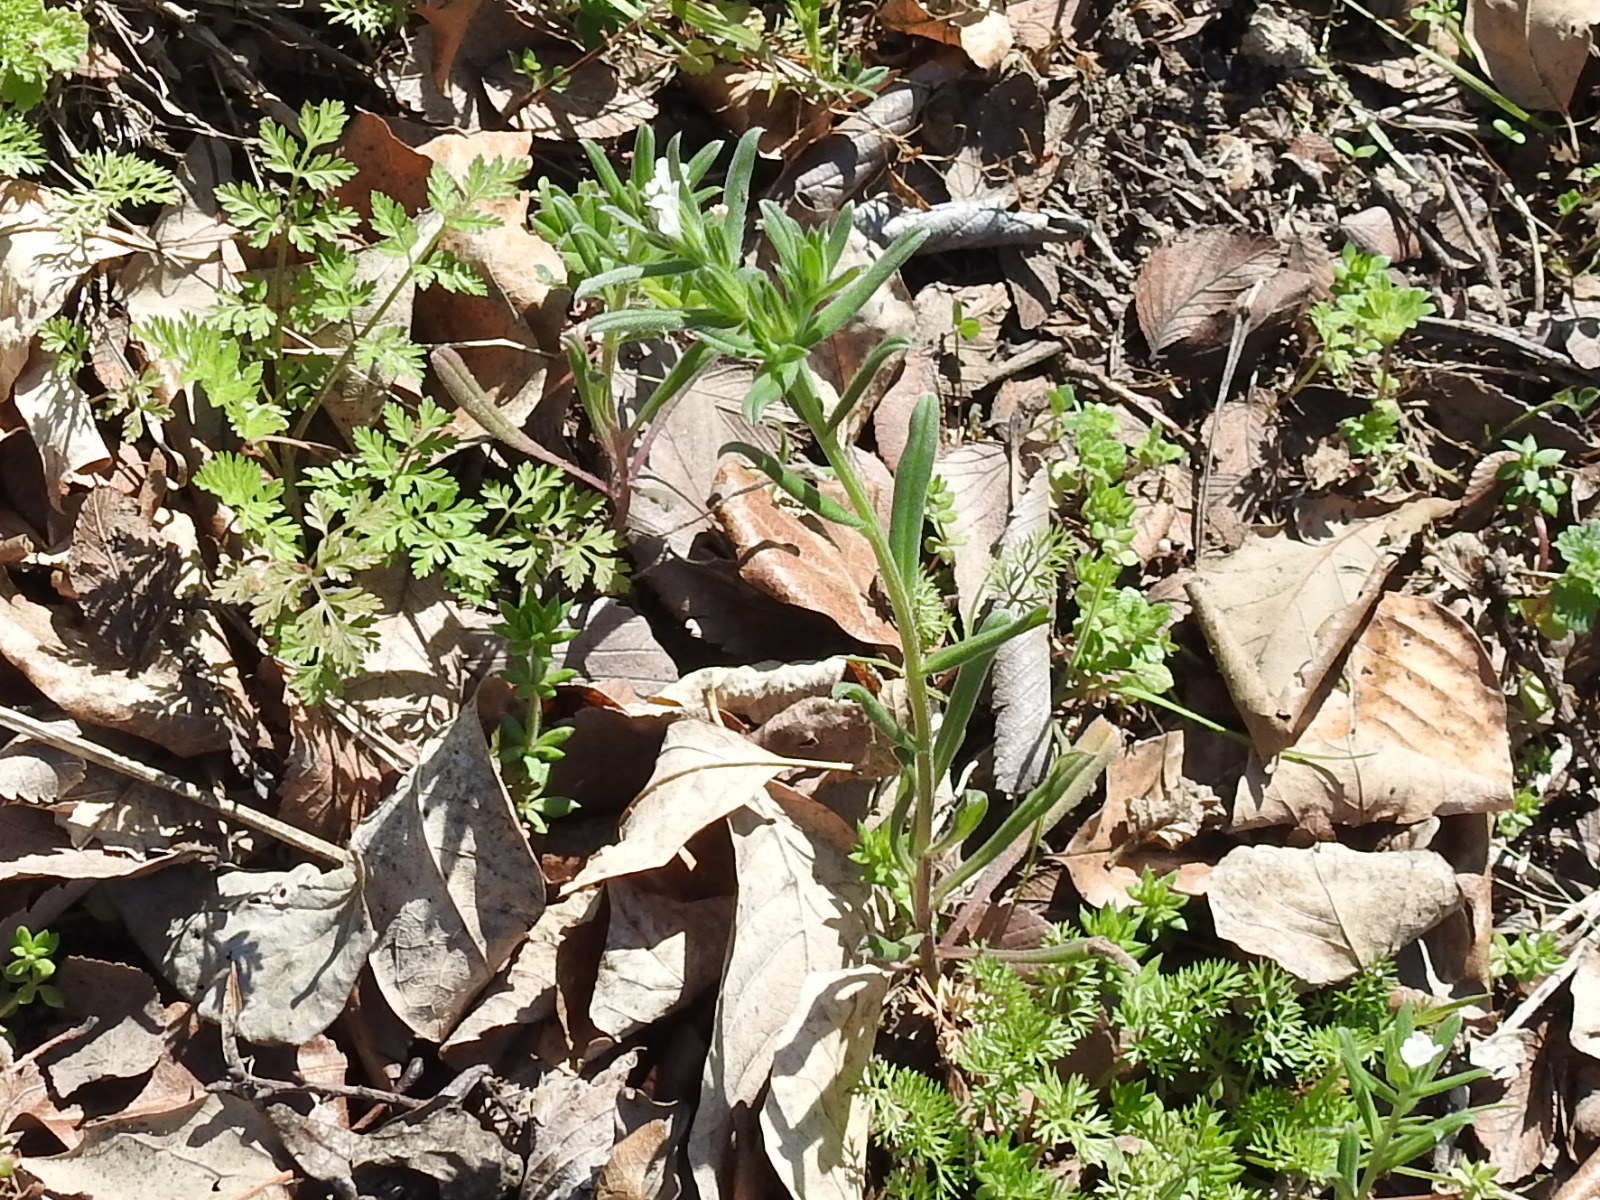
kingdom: Plantae
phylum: Tracheophyta
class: Magnoliopsida
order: Boraginales
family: Boraginaceae
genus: Buglossoides
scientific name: Buglossoides arvensis
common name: Corn gromwell
